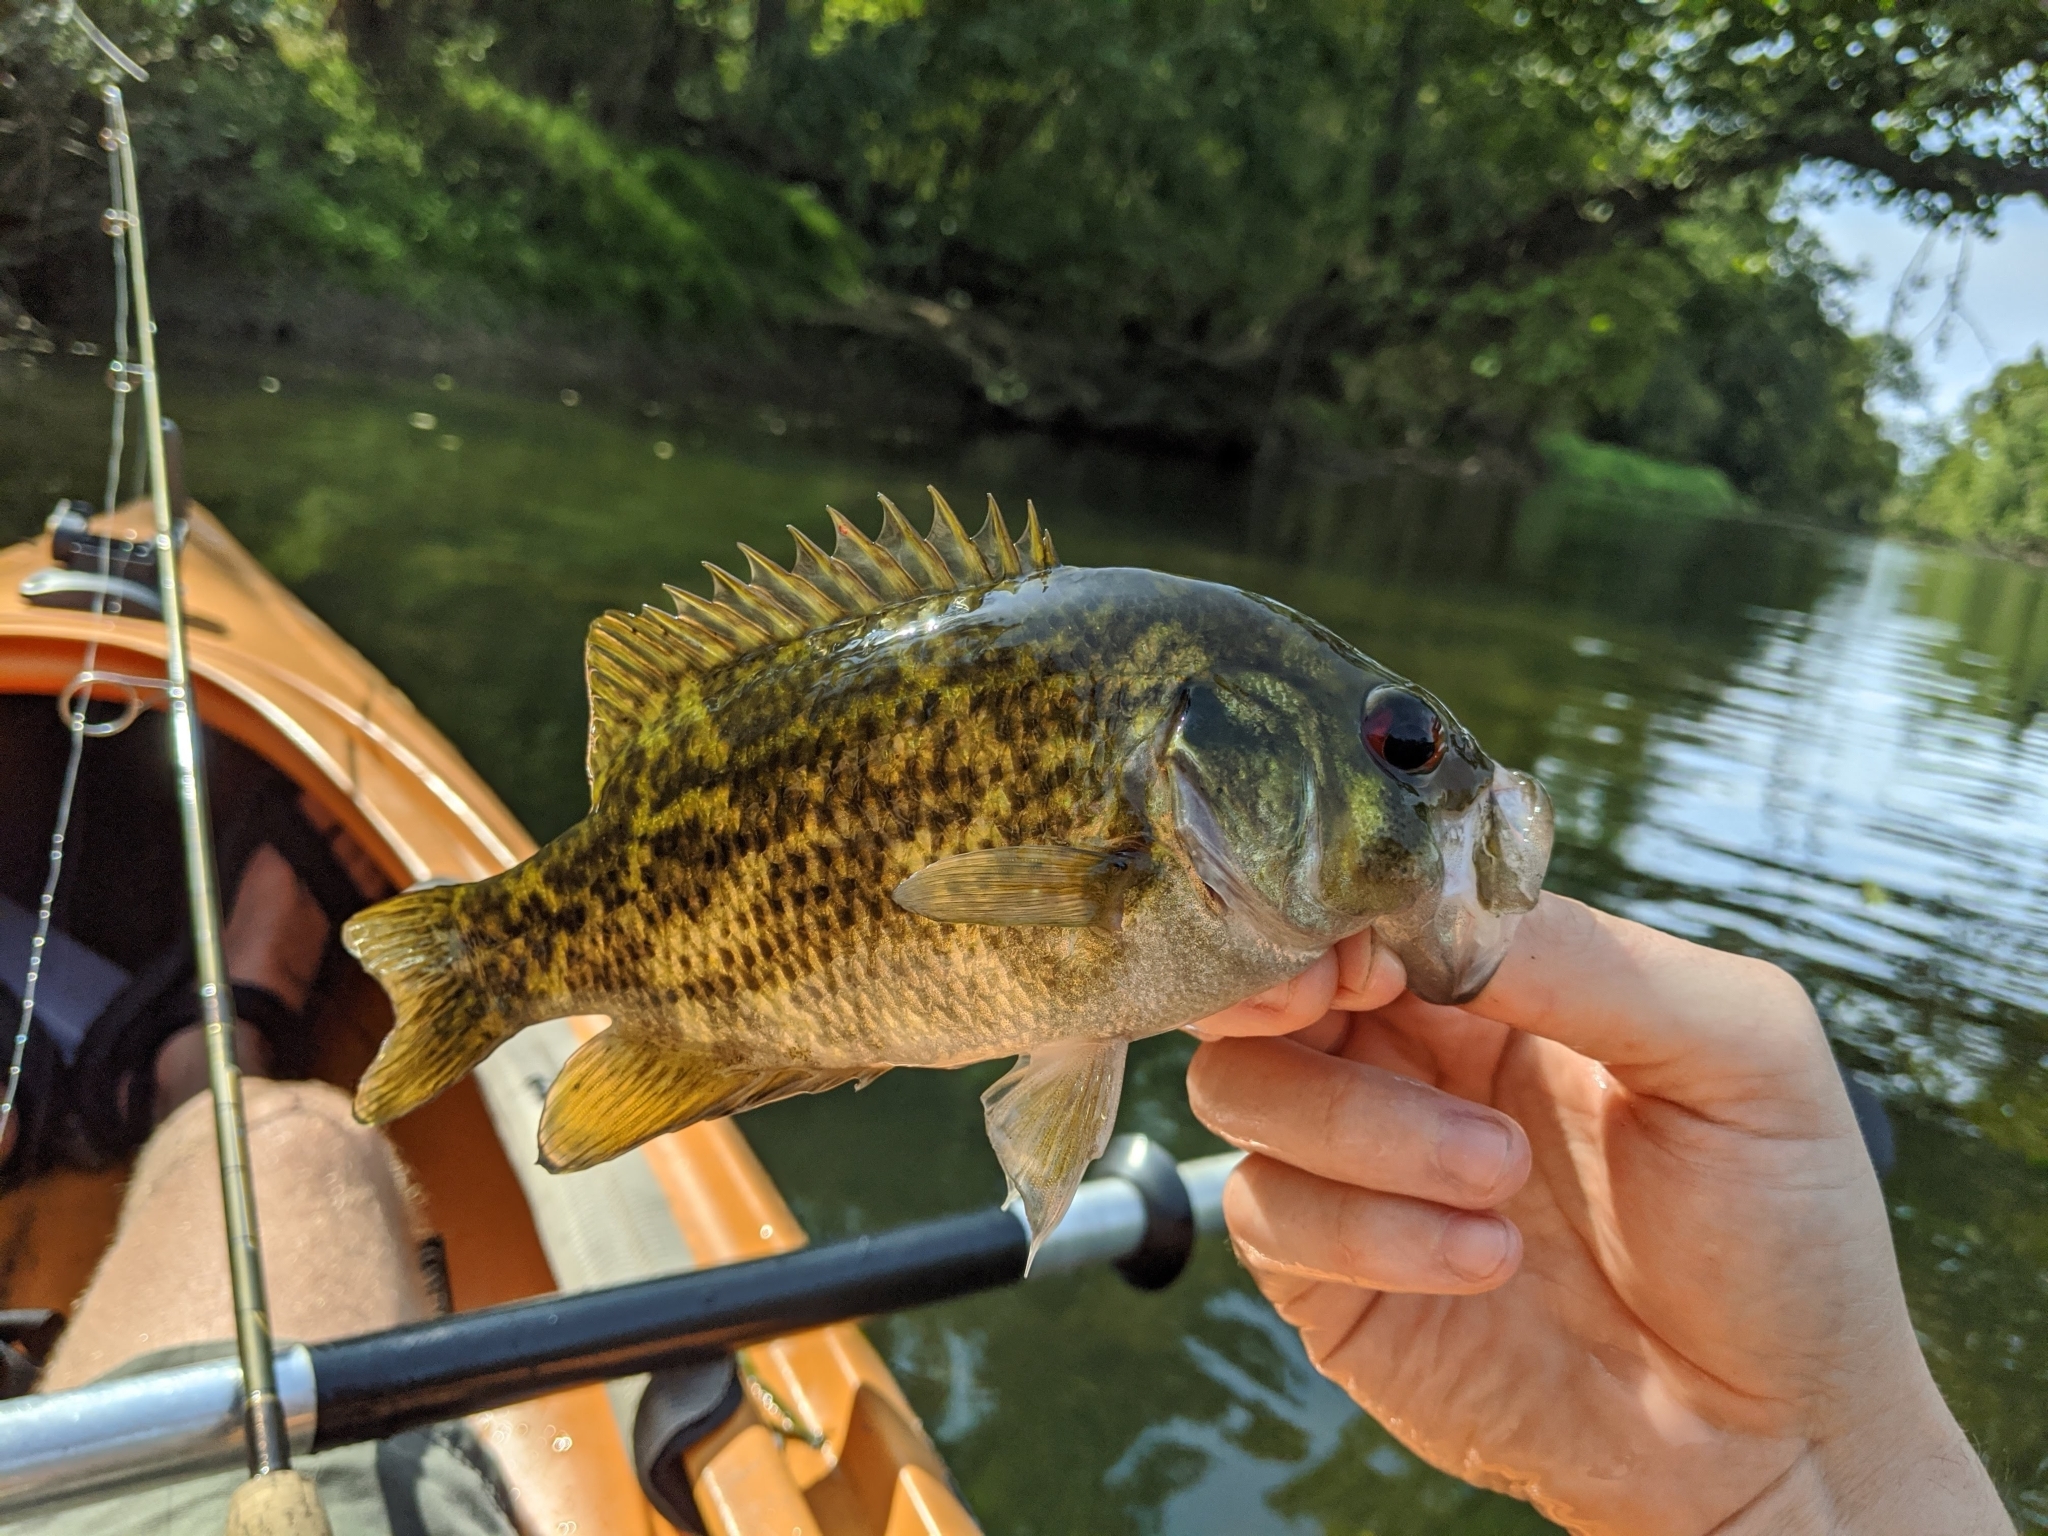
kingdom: Animalia
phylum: Chordata
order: Perciformes
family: Centrarchidae
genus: Ambloplites
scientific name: Ambloplites rupestris
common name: Rock bass
